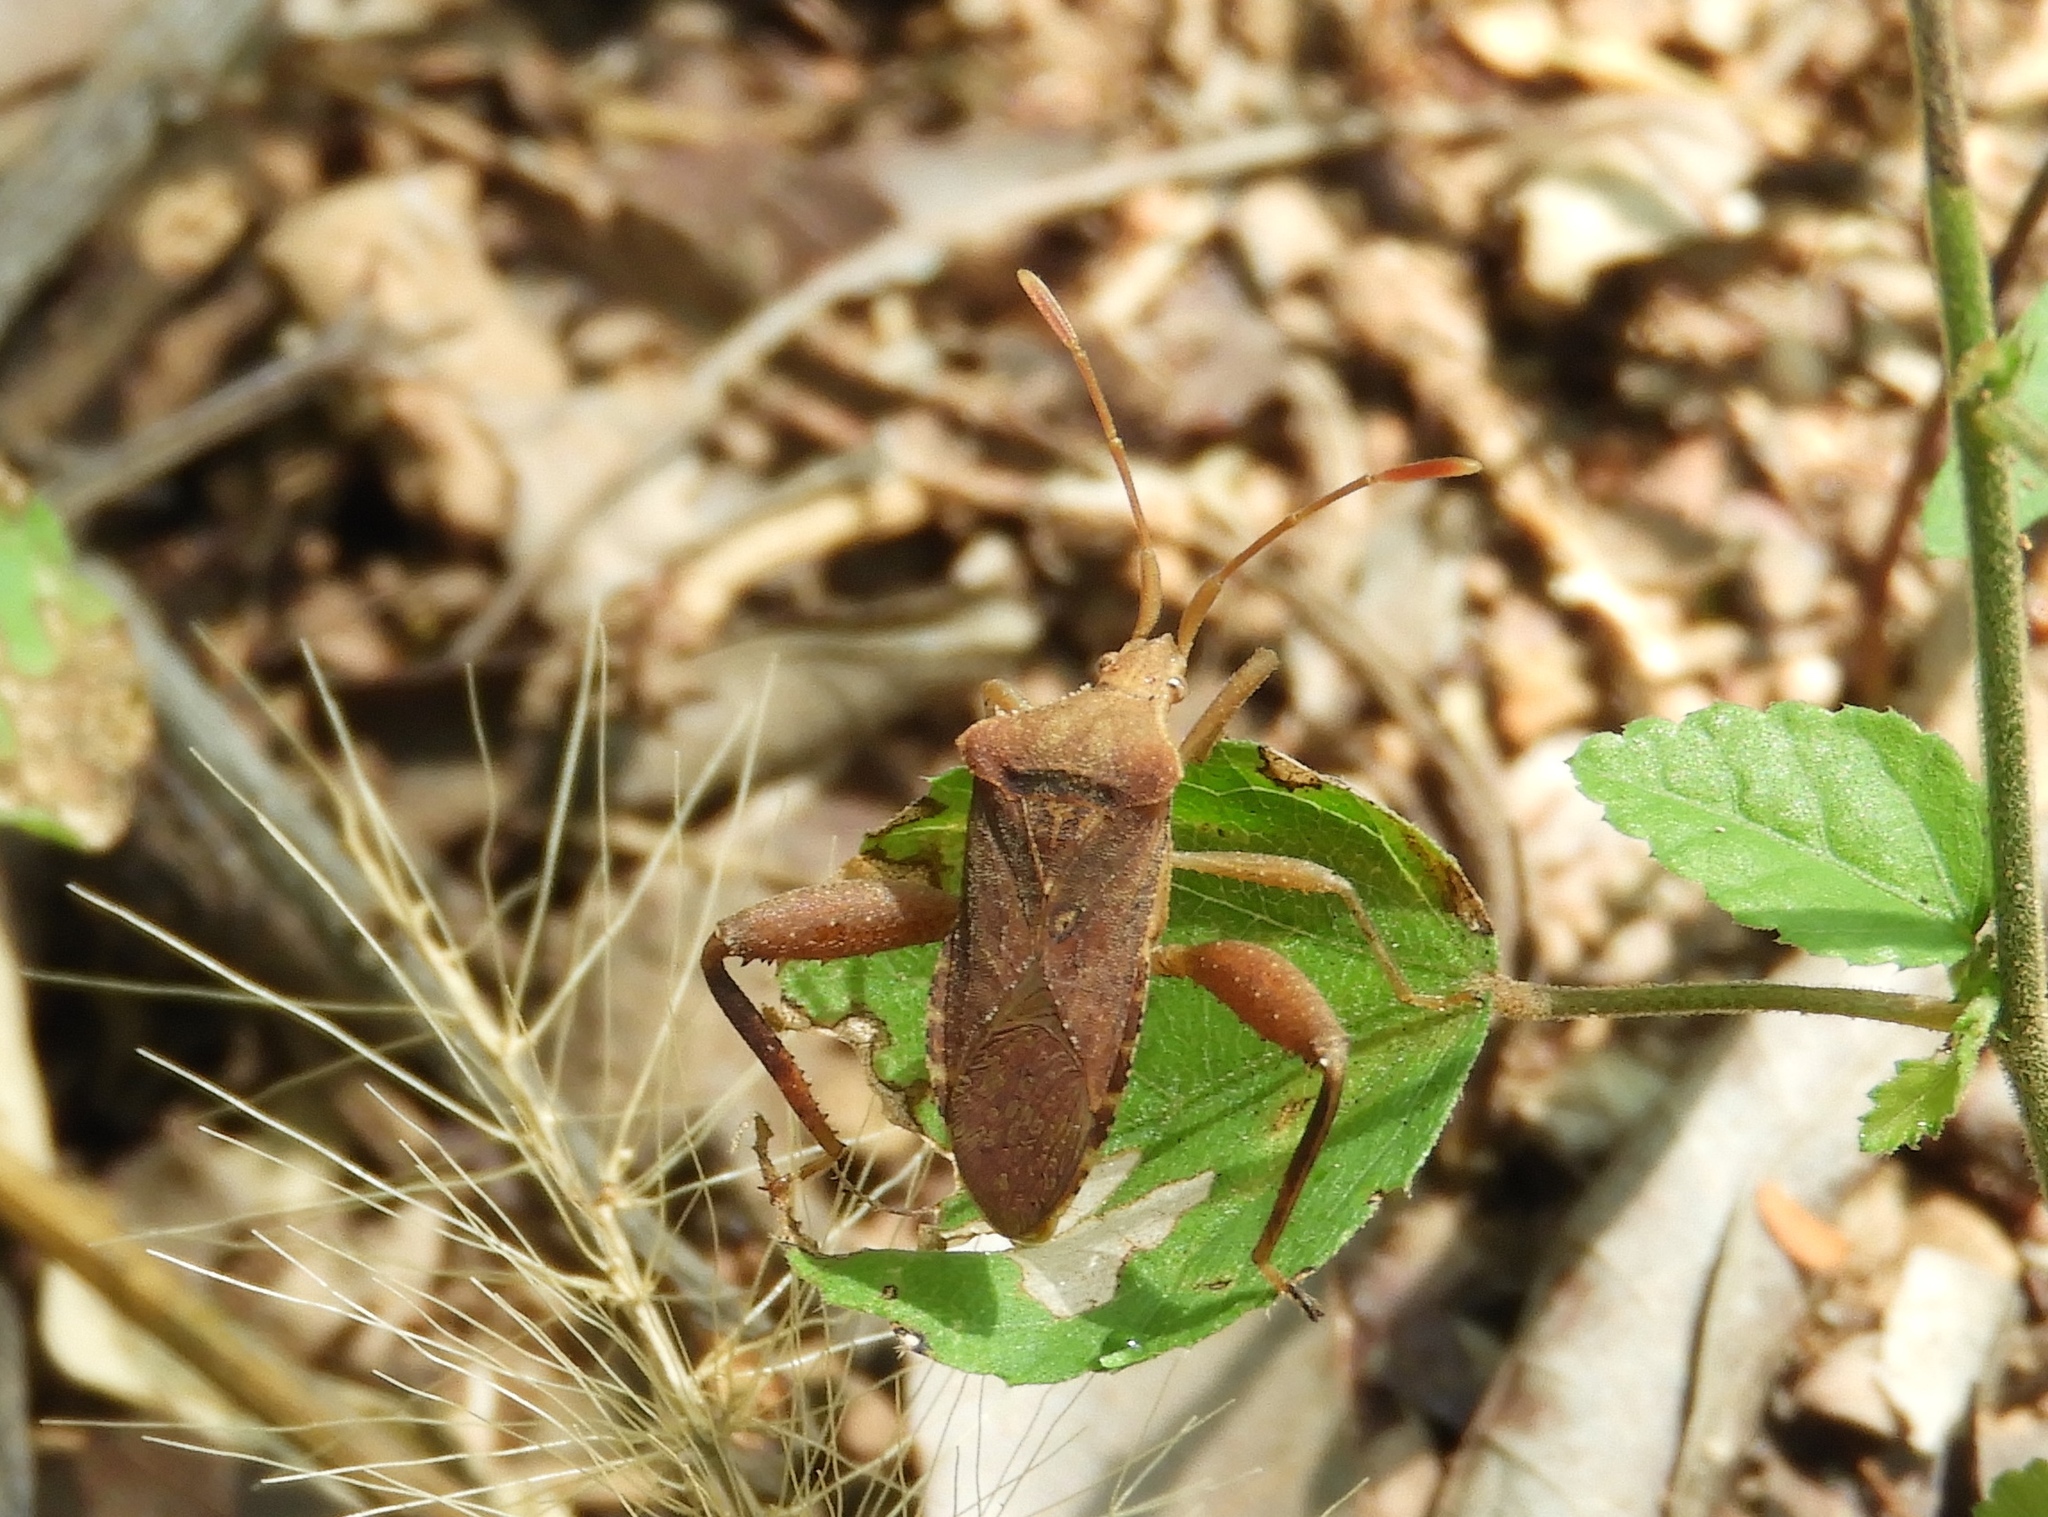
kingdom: Animalia
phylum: Arthropoda
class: Insecta
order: Hemiptera
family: Coreidae
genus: Mamurius
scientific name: Mamurius mopsus
